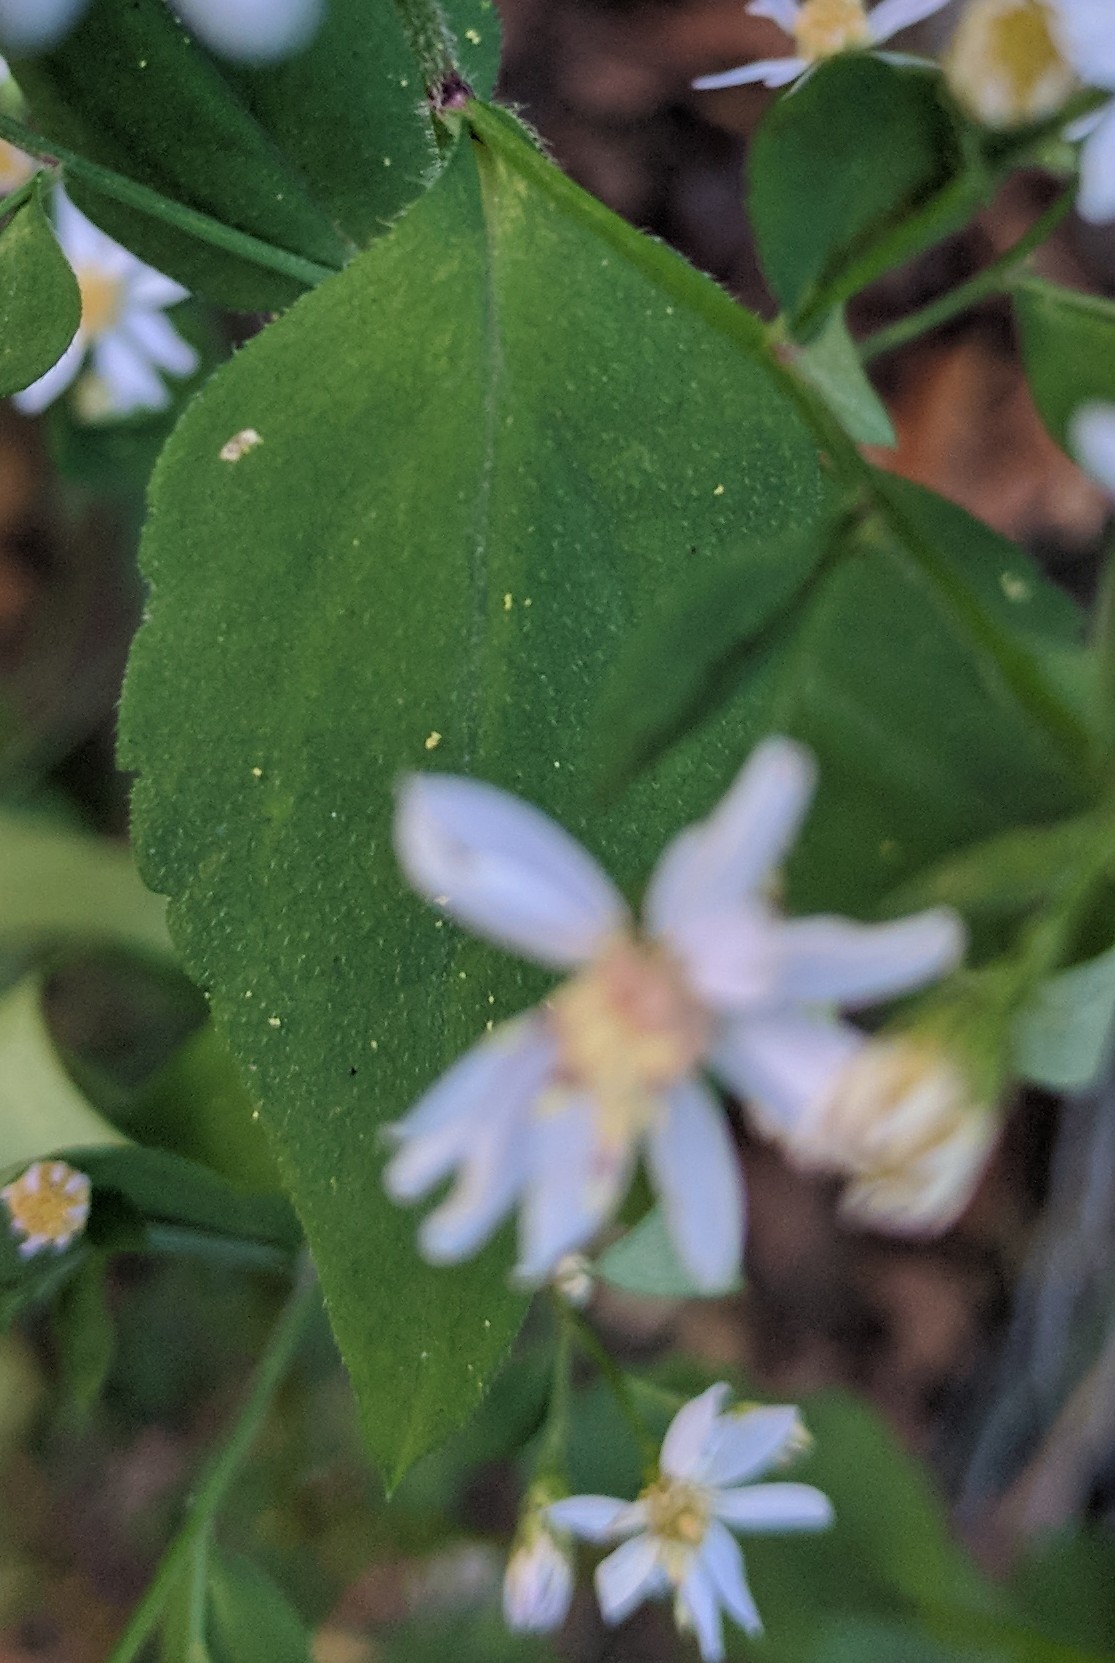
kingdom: Plantae
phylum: Tracheophyta
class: Magnoliopsida
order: Asterales
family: Asteraceae
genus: Symphyotrichum
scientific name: Symphyotrichum cordifolium
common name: Beeweed
